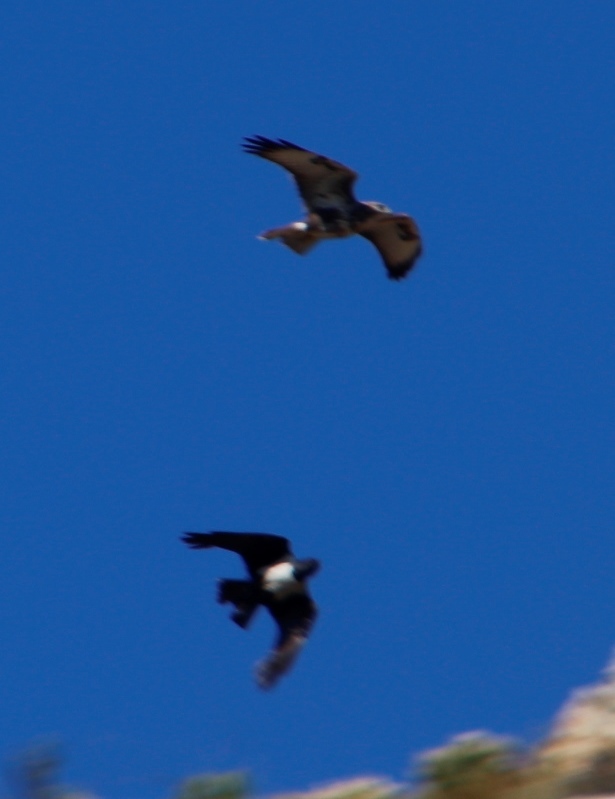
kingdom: Animalia
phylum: Chordata
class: Aves
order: Passeriformes
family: Corvidae
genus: Corvus
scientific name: Corvus albus
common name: Pied crow
